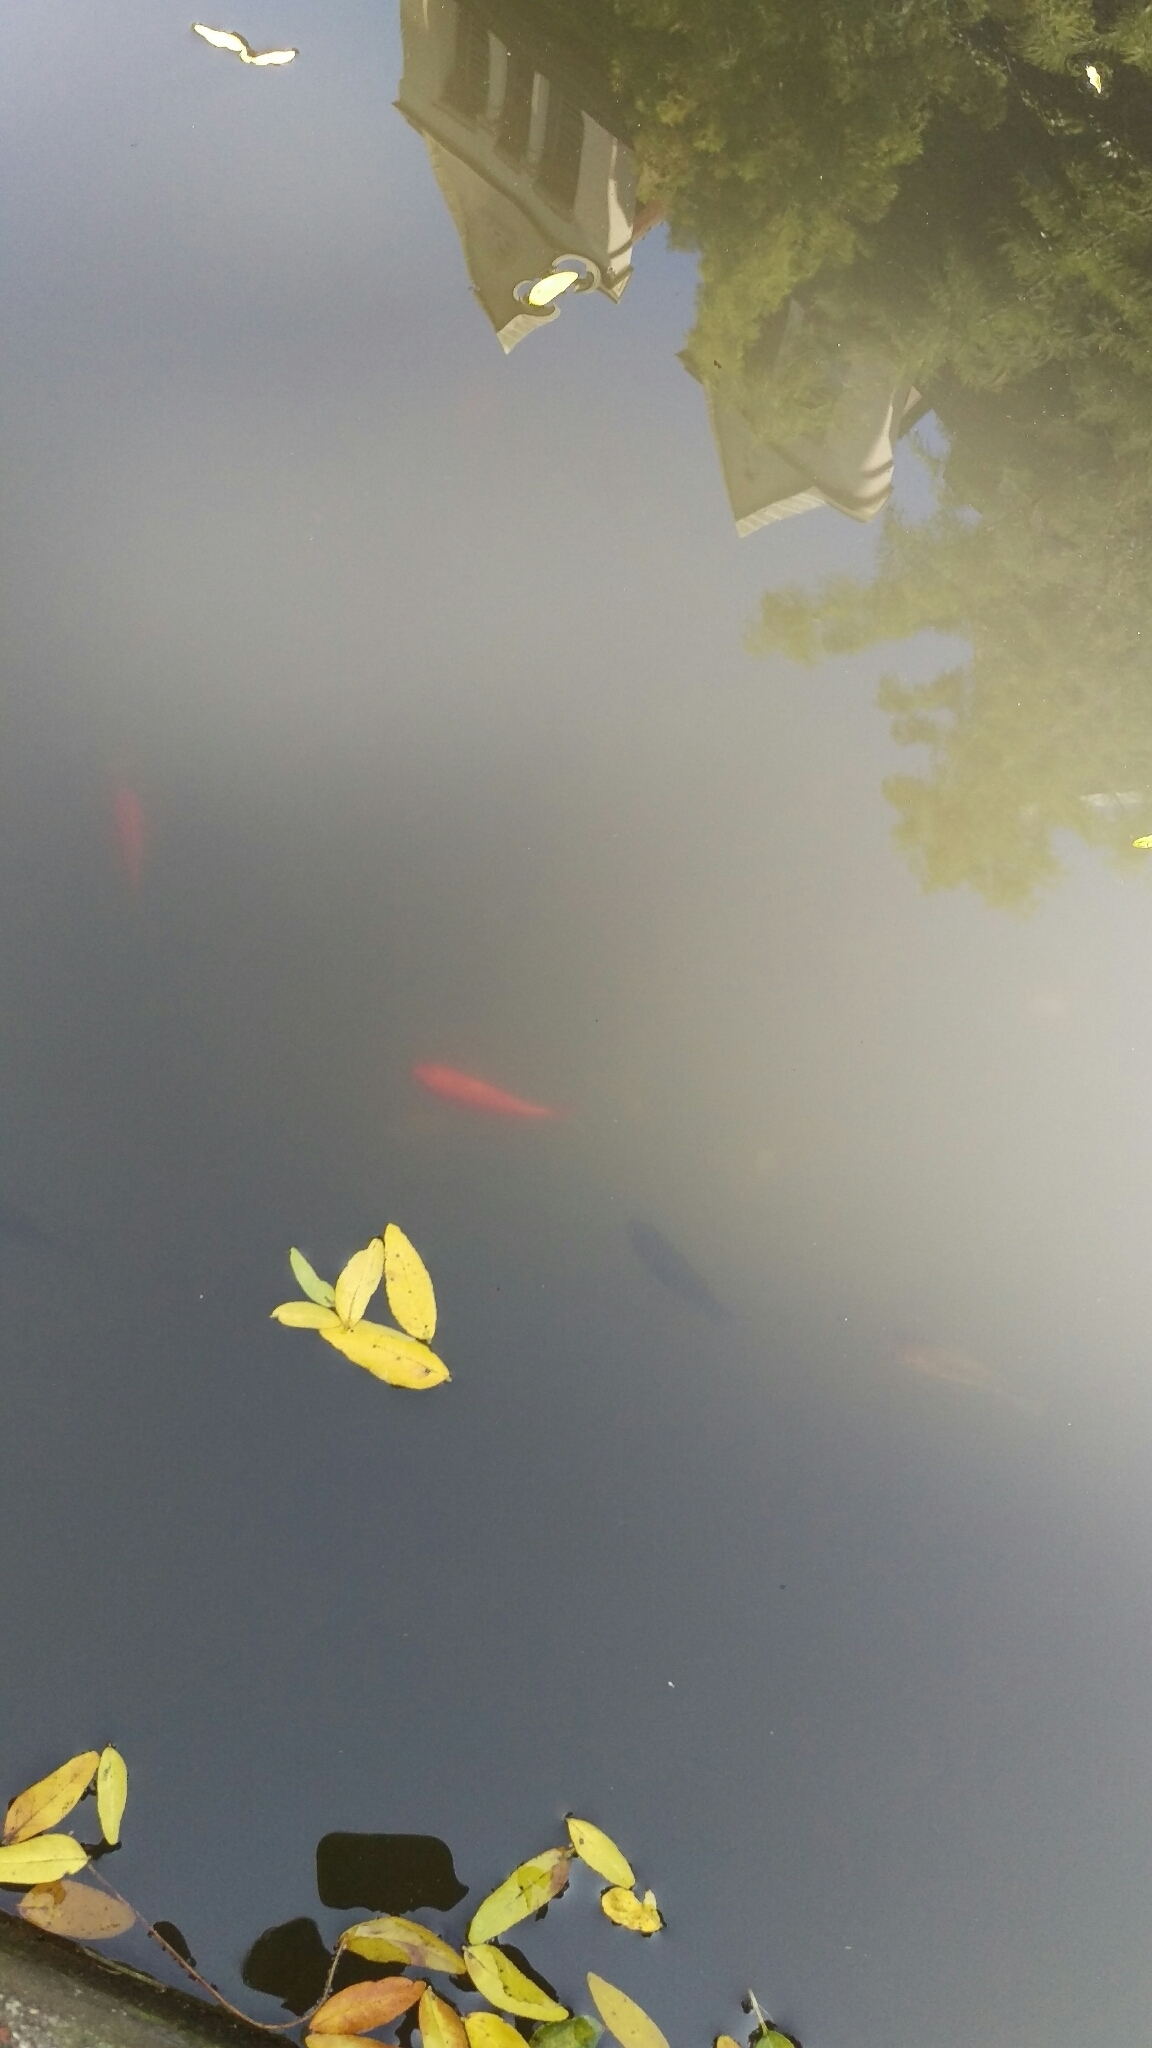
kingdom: Animalia
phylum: Chordata
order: Cypriniformes
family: Cyprinidae
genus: Carassius
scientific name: Carassius auratus
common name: Goldfish
